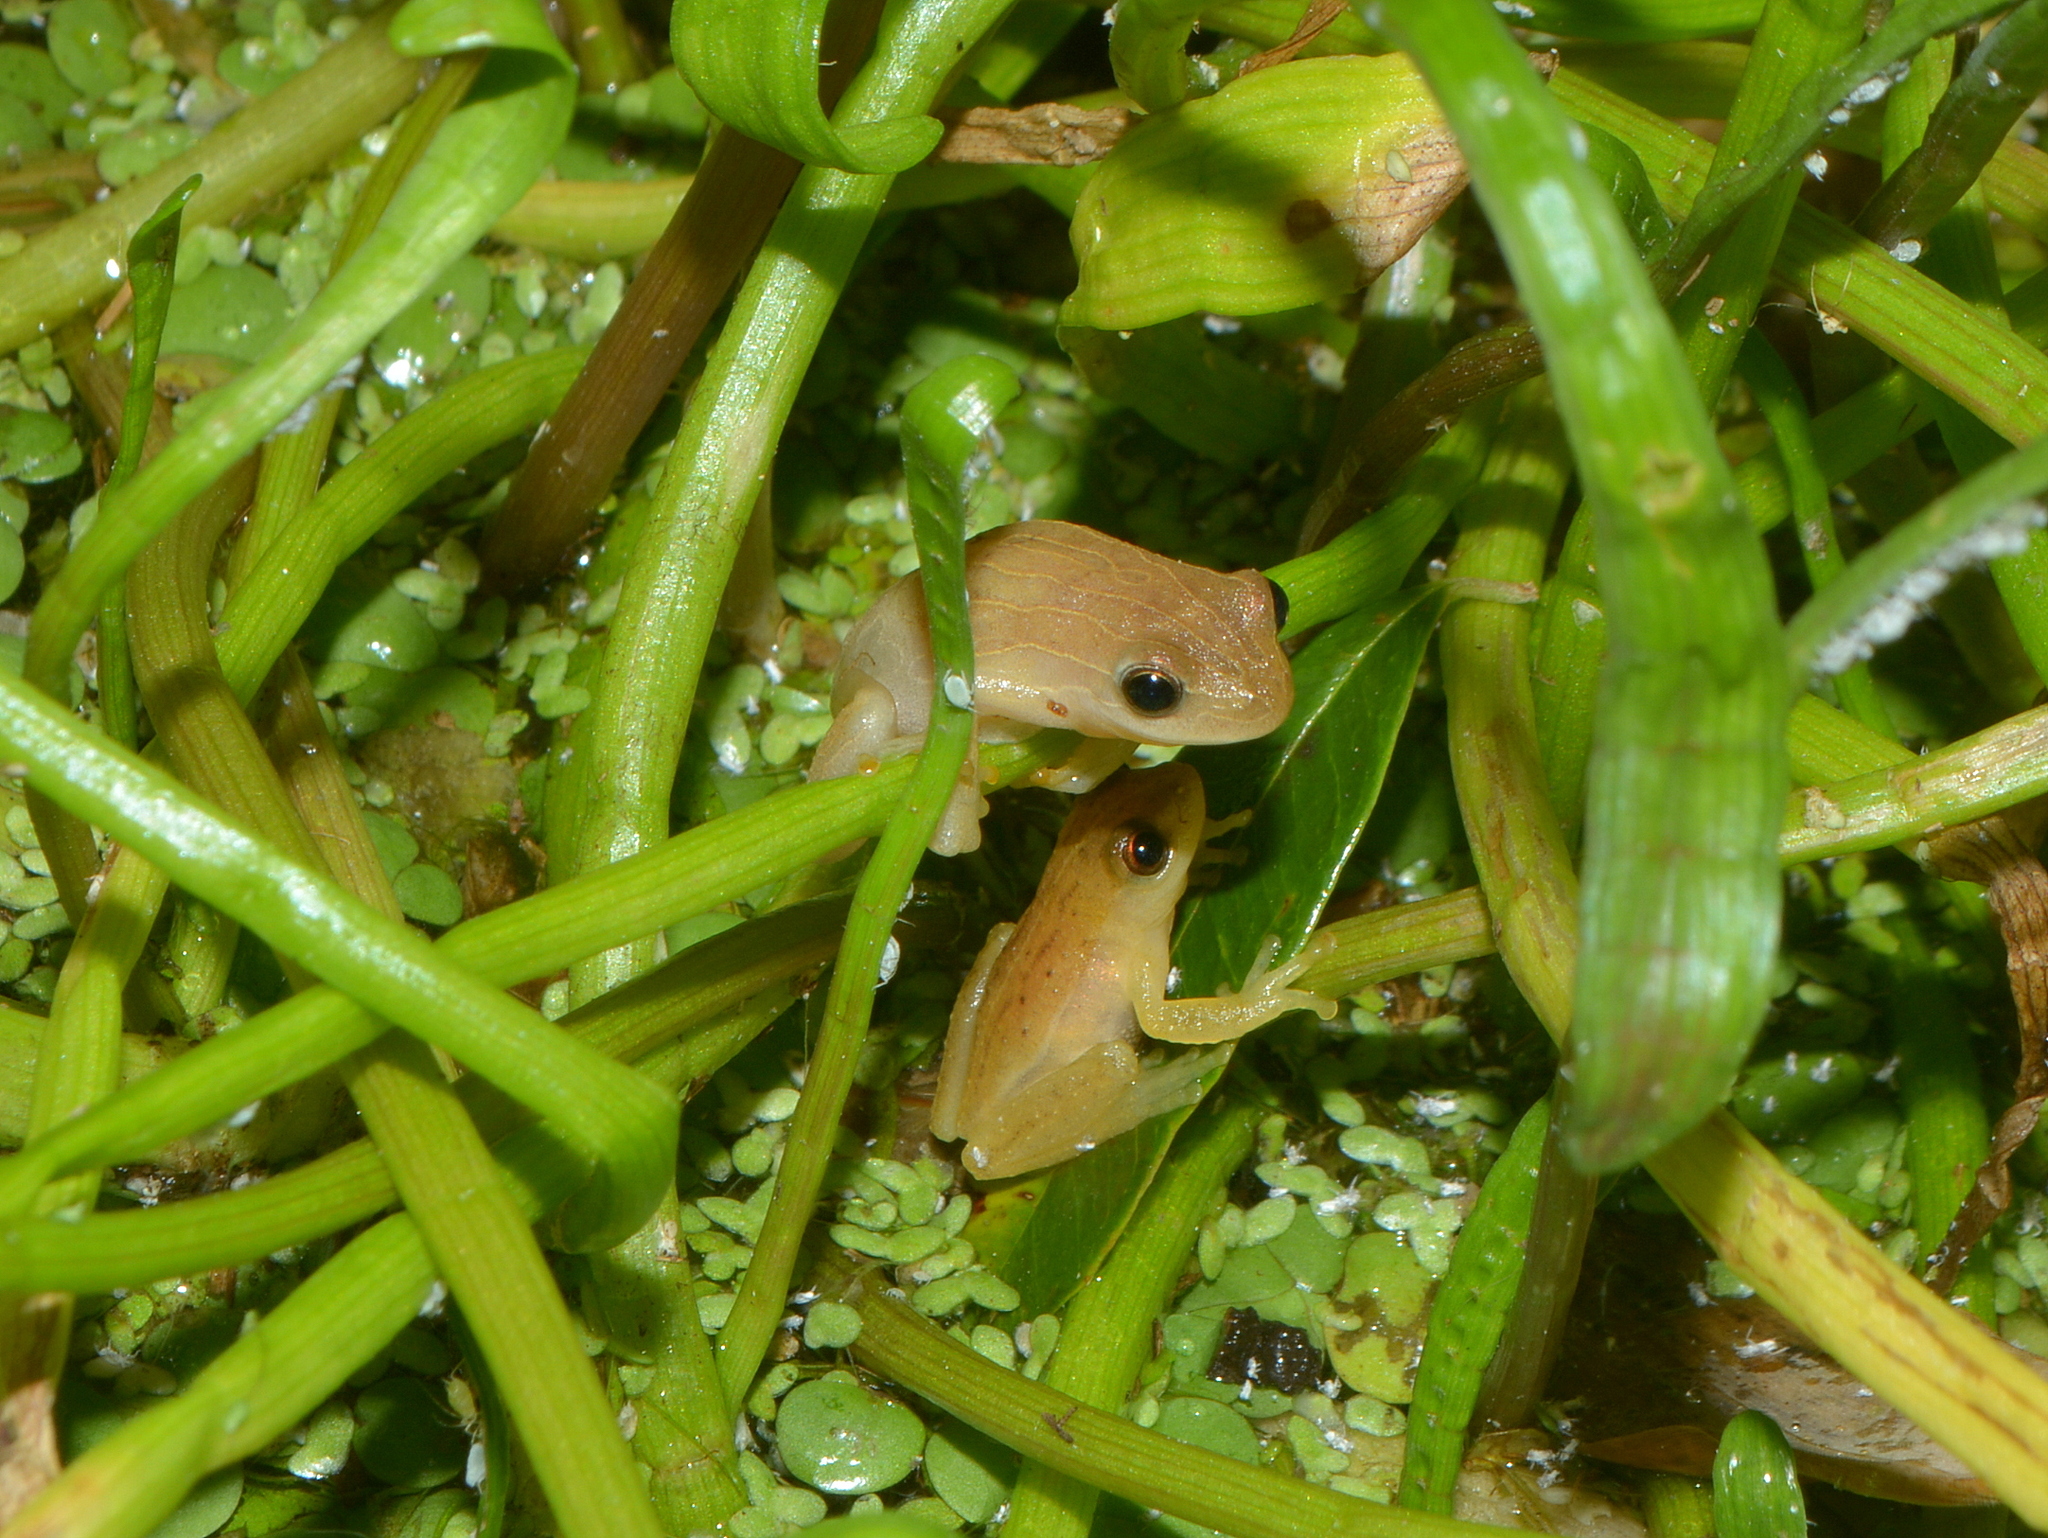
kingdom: Animalia
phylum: Chordata
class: Amphibia
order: Anura
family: Hylidae
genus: Dendropsophus
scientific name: Dendropsophus sanborni
